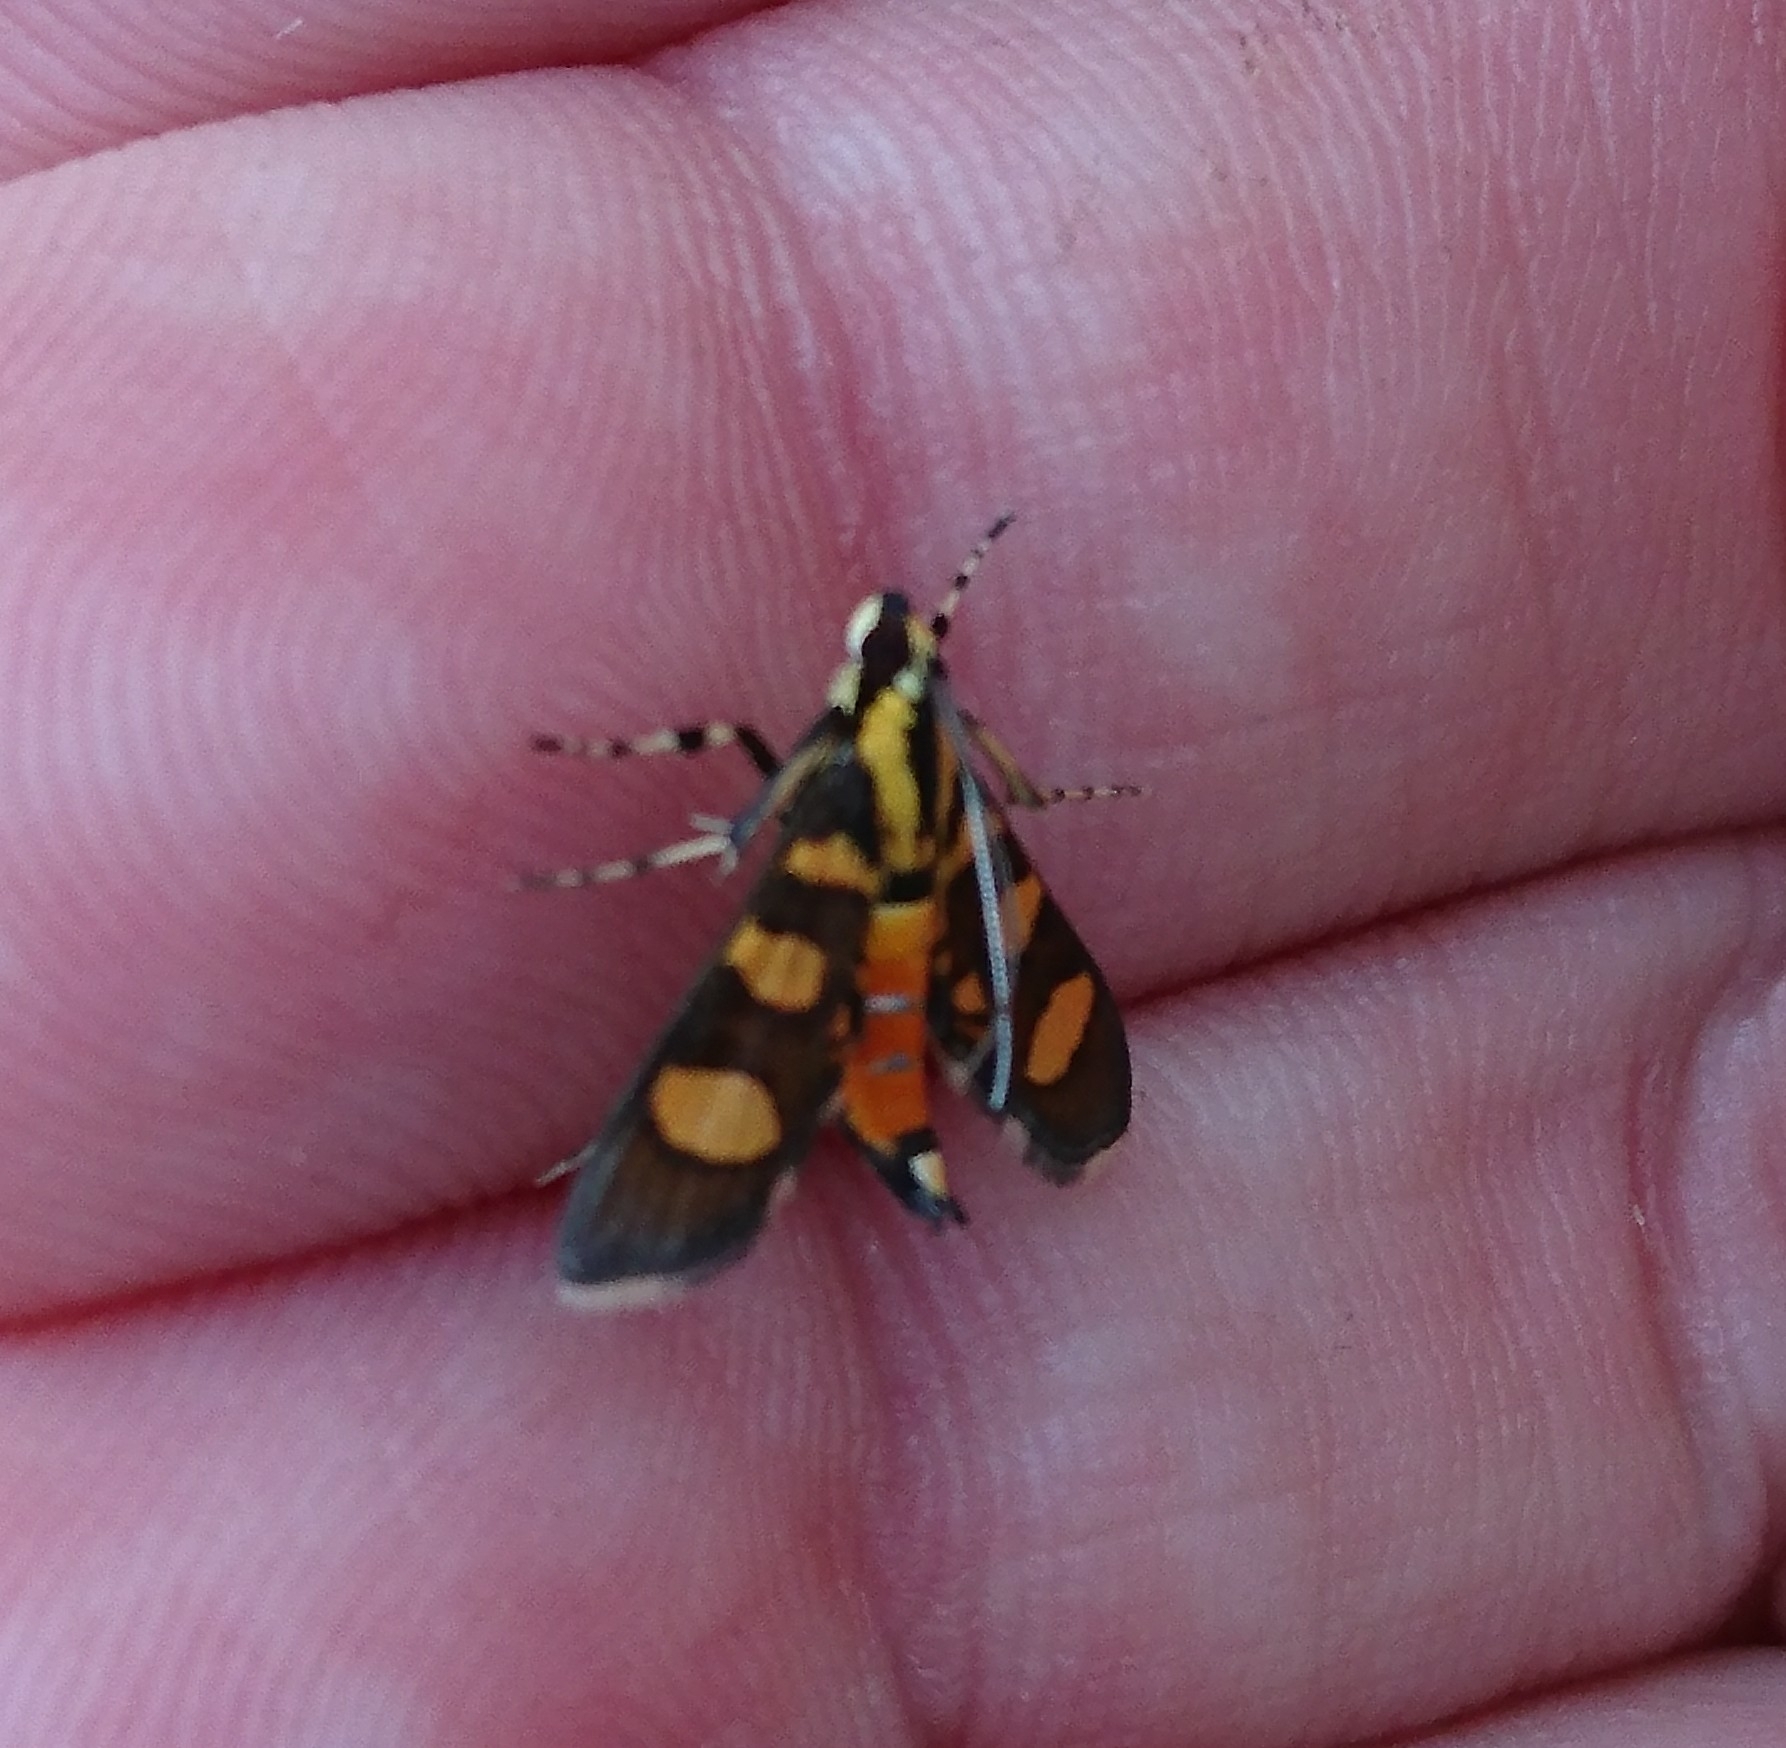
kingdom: Animalia
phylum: Arthropoda
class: Insecta
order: Lepidoptera
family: Crambidae
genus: Syngamia
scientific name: Syngamia florella
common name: Orange-spotted flower moth
